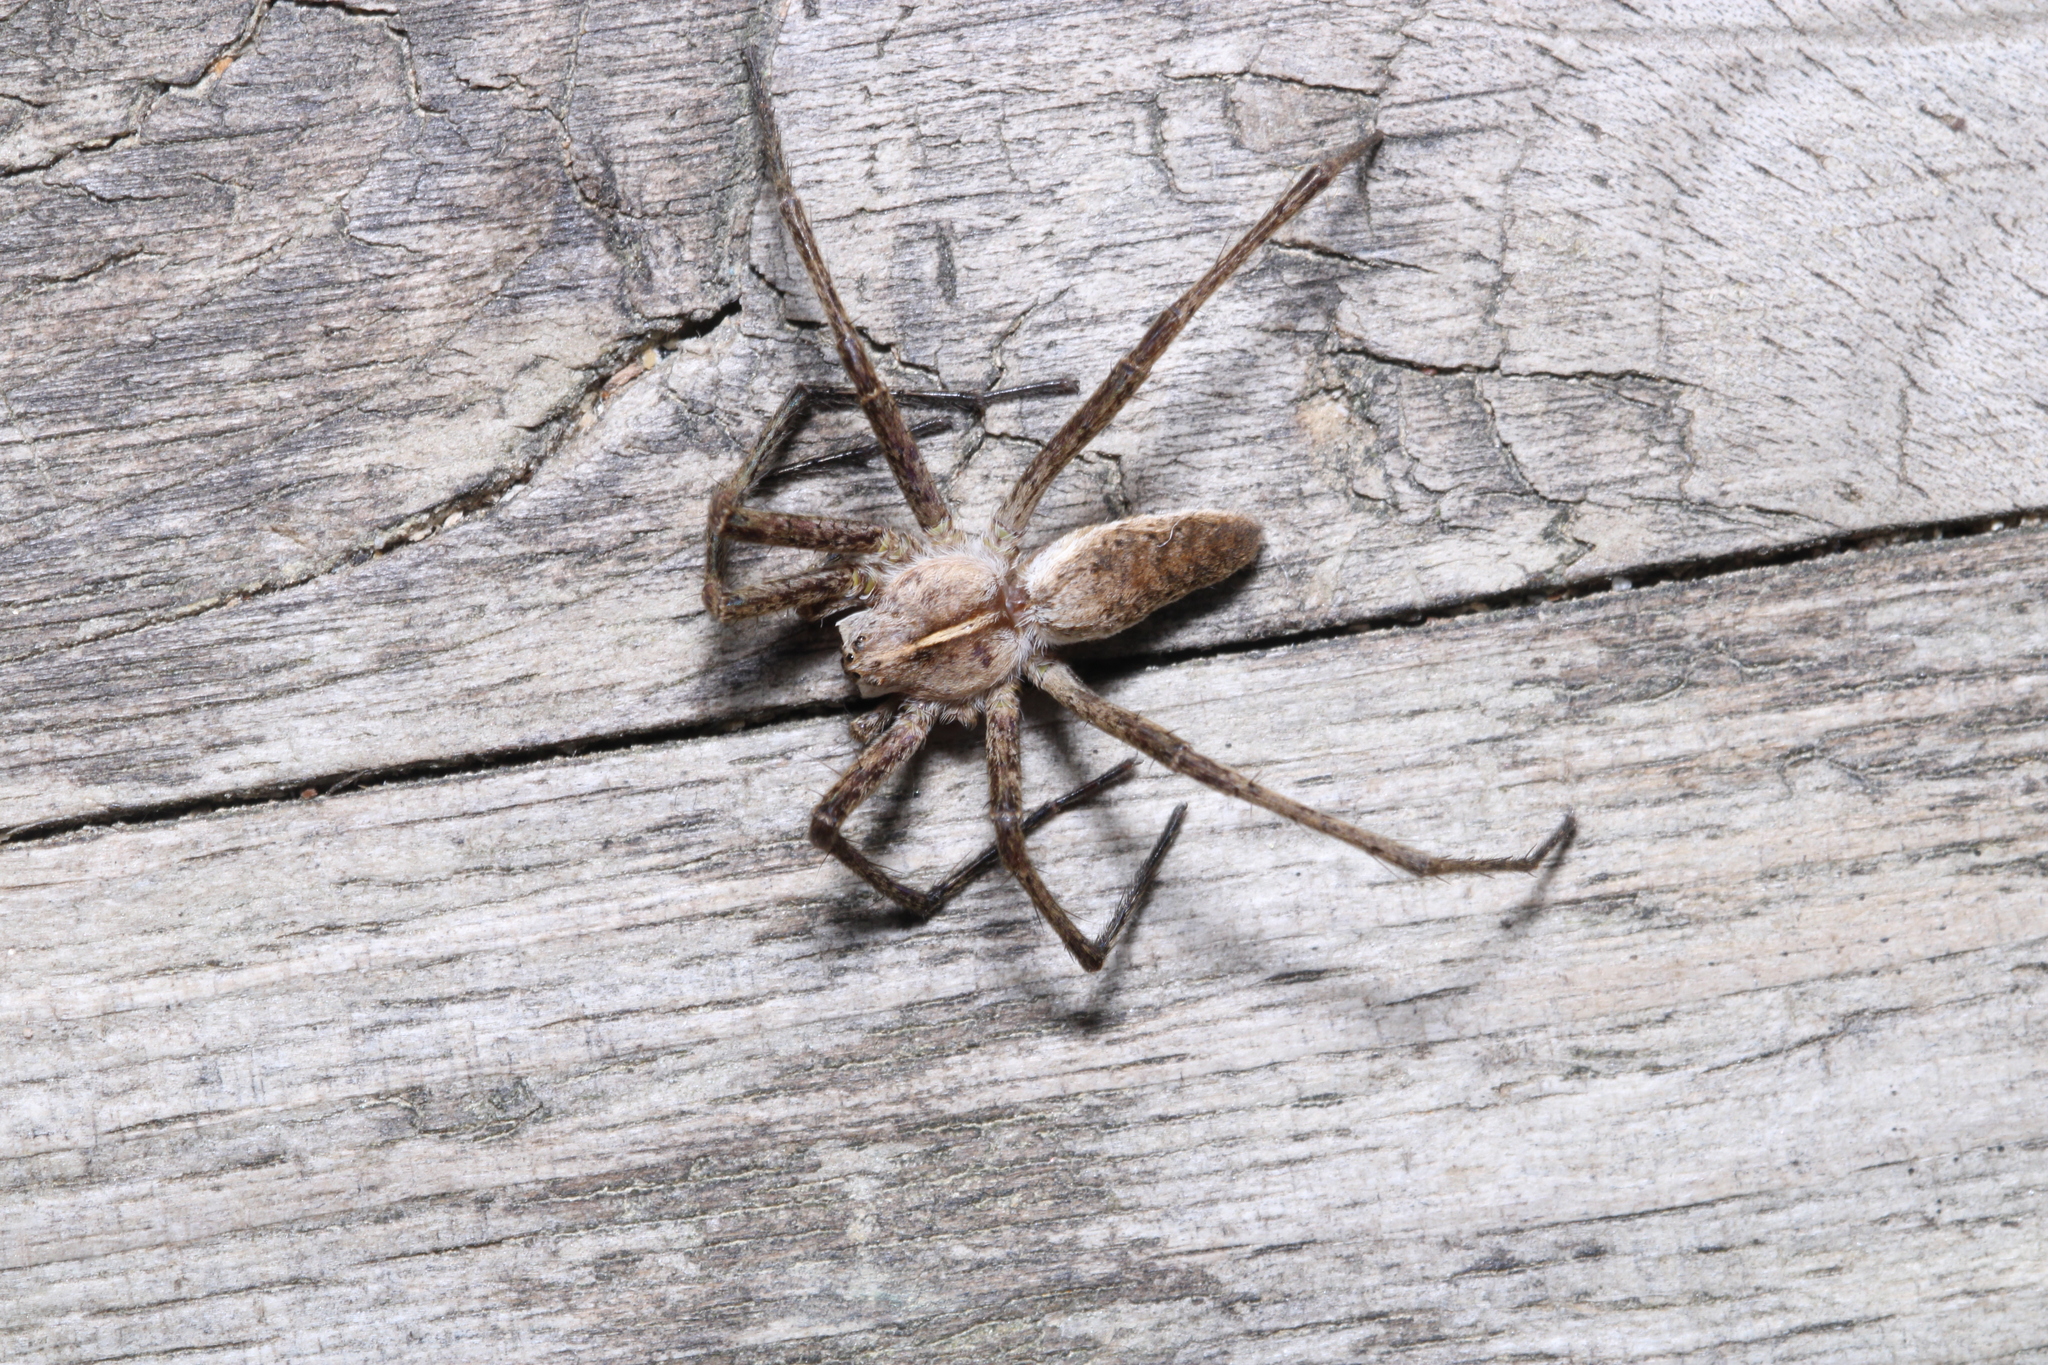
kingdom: Animalia
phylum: Arthropoda
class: Arachnida
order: Araneae
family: Pisauridae
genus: Pisaura
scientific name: Pisaura mirabilis
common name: Tent spider
